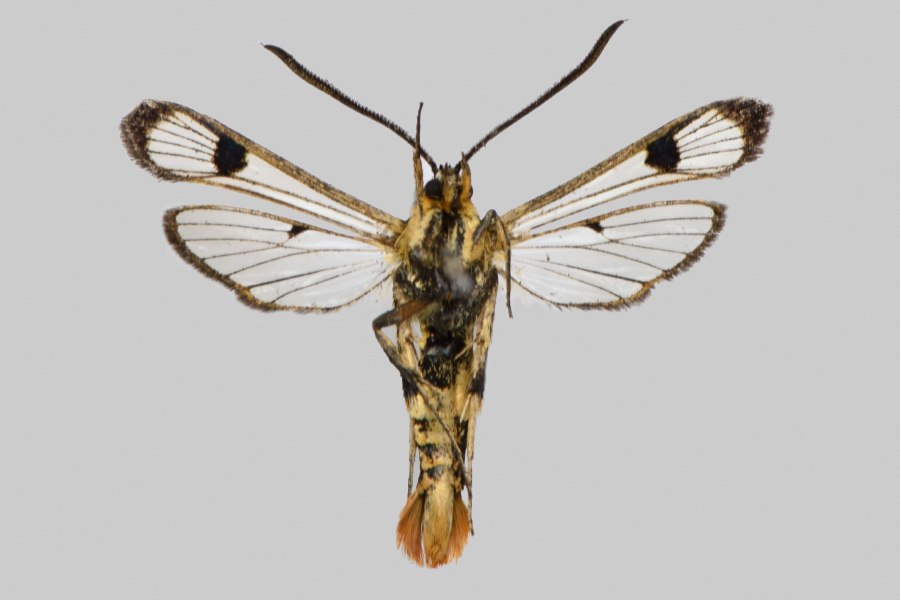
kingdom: Animalia
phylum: Arthropoda
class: Insecta
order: Lepidoptera
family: Sesiidae
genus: Synanthedon
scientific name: Synanthedon scoliaeformis
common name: Welsh clearwing
